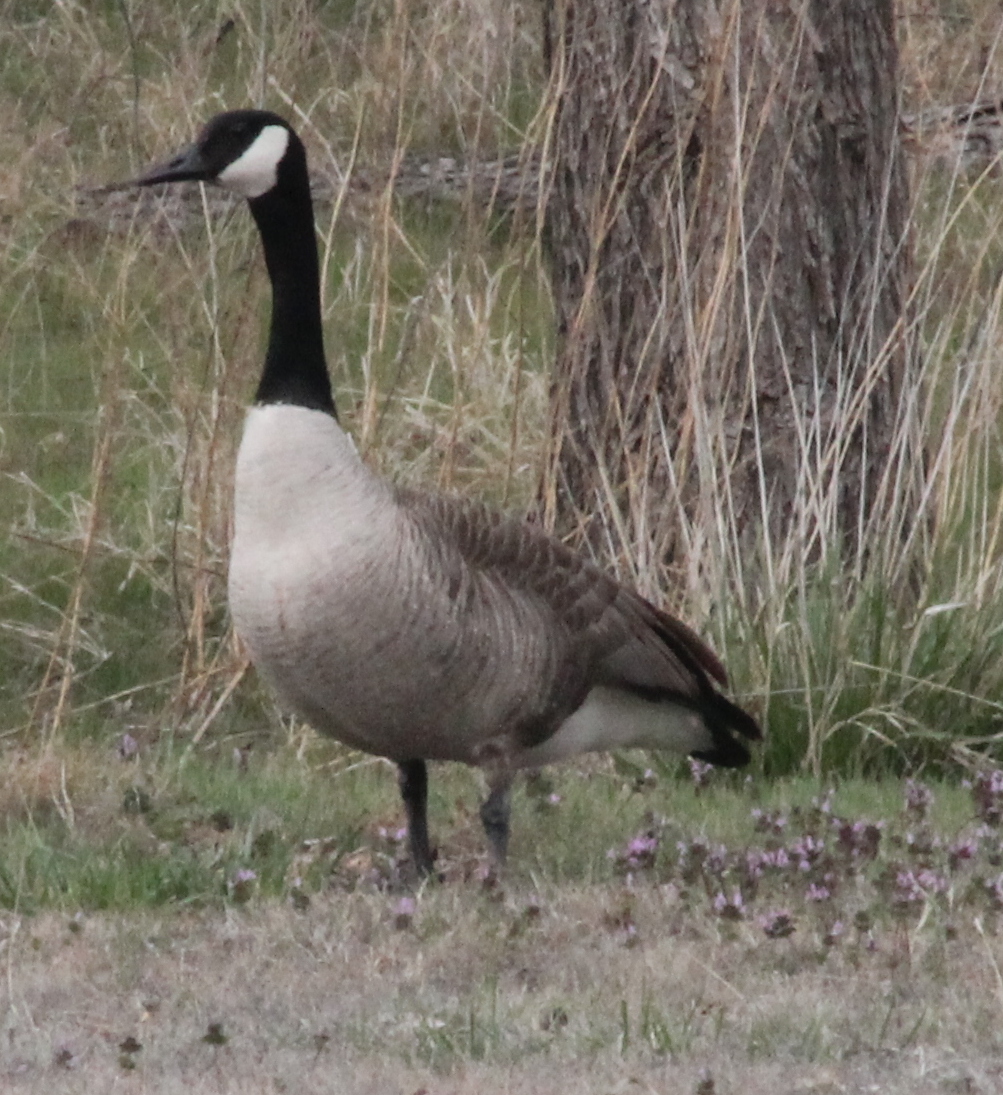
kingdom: Animalia
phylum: Chordata
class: Aves
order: Anseriformes
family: Anatidae
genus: Branta
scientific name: Branta canadensis
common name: Canada goose
